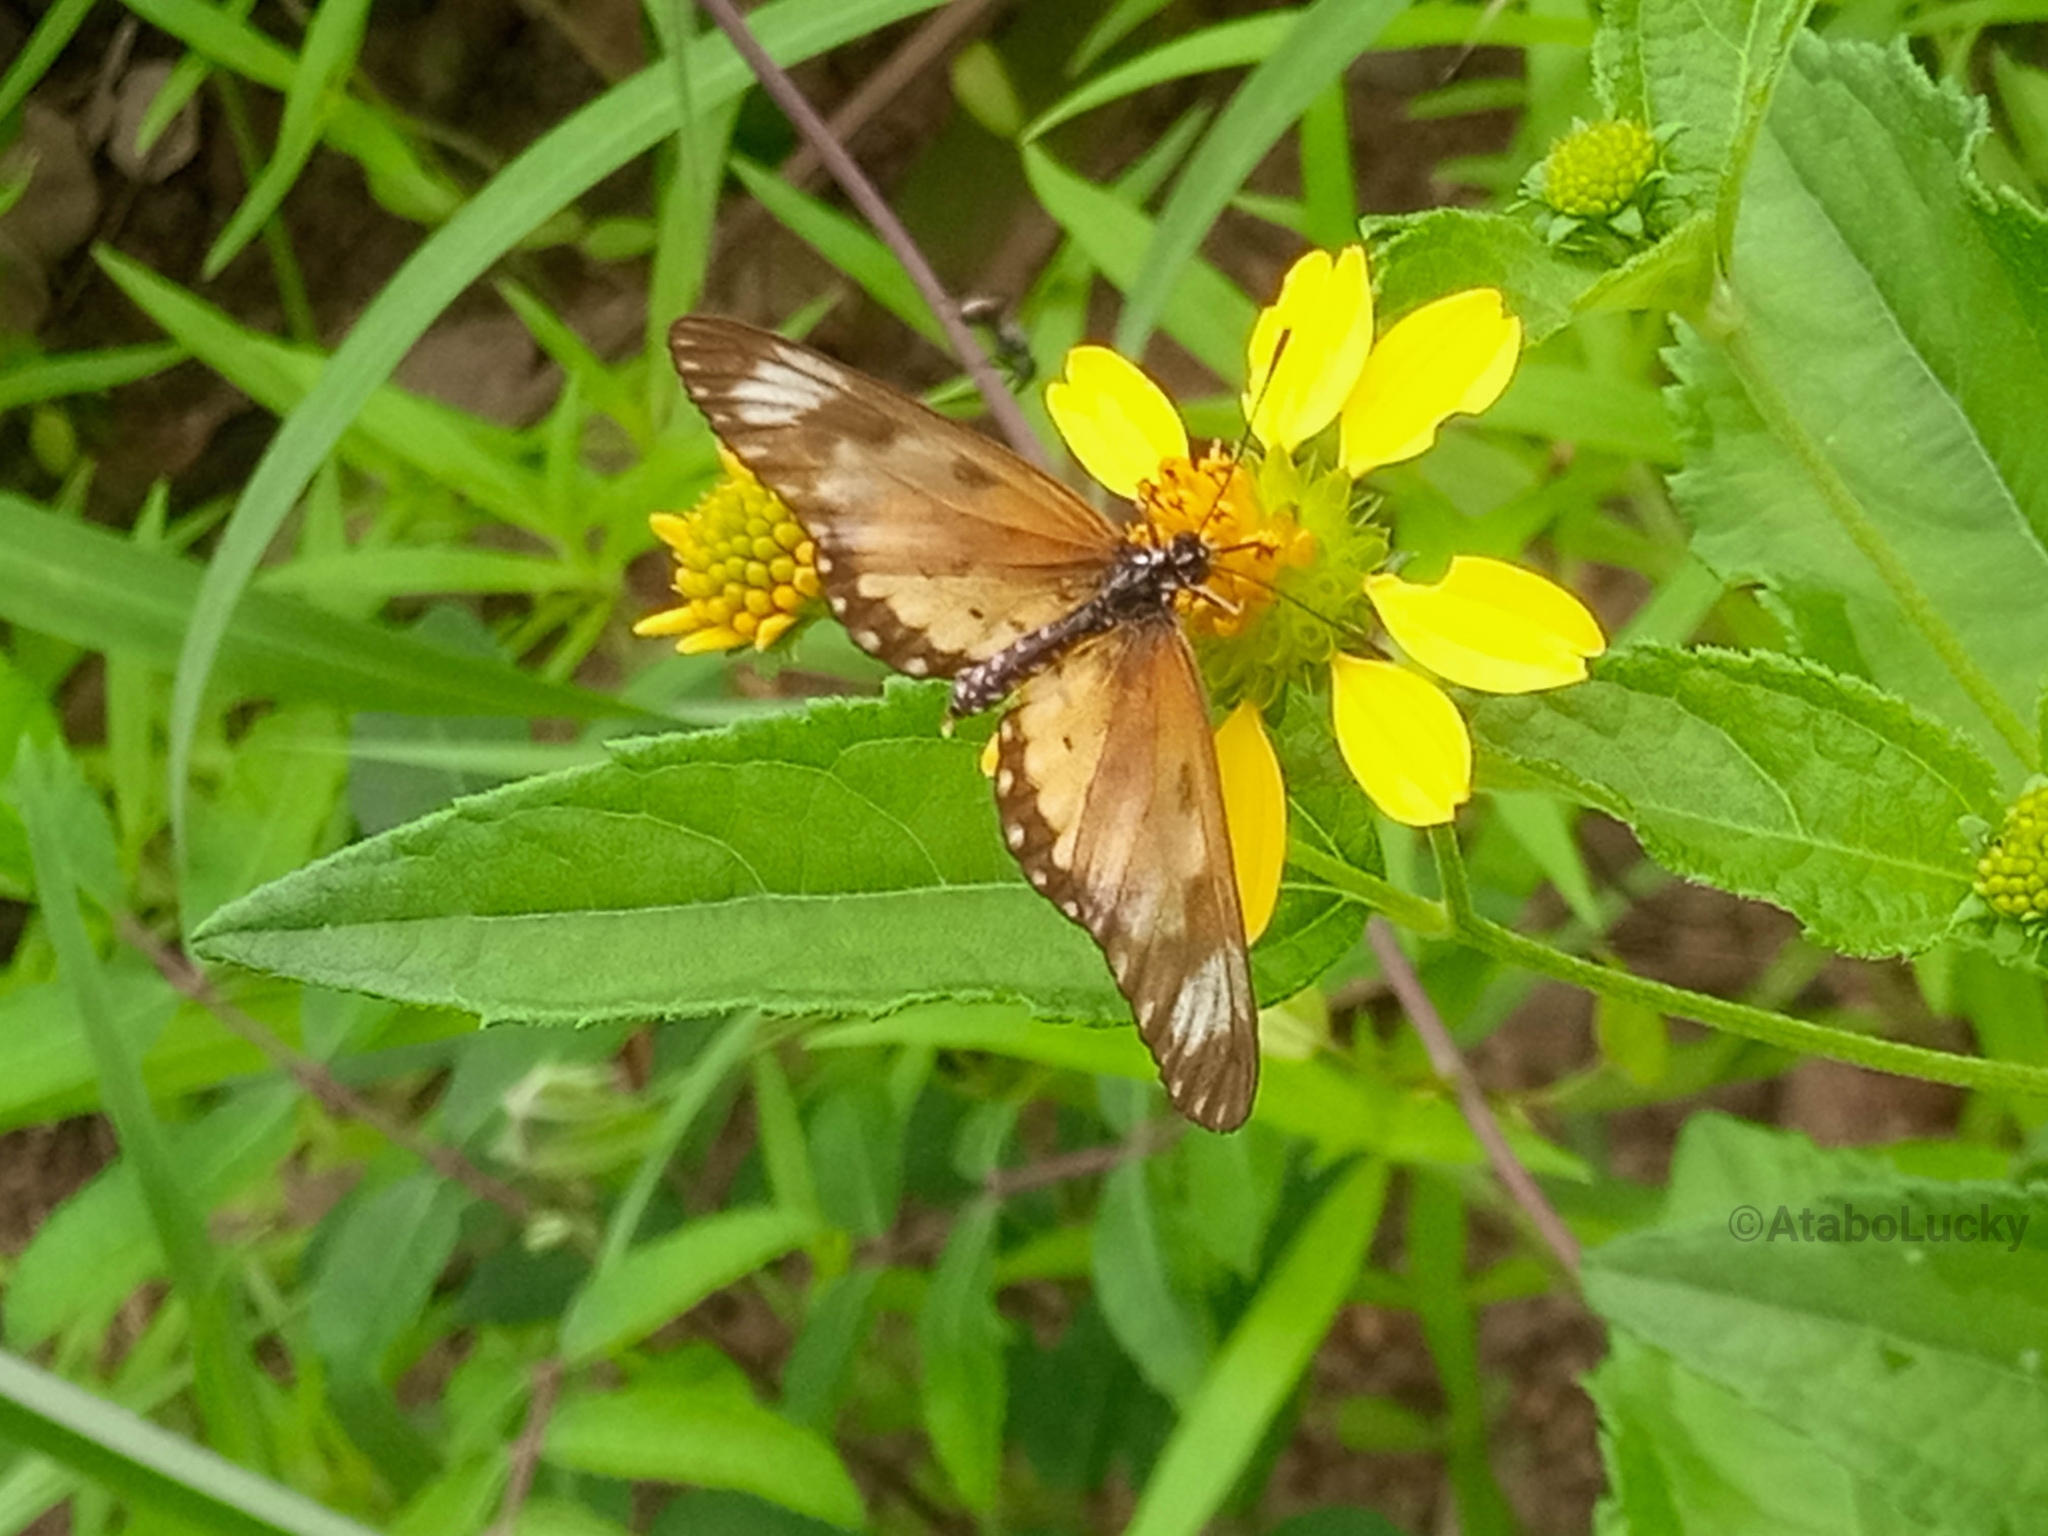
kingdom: Animalia
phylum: Arthropoda
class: Insecta
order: Lepidoptera
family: Nymphalidae
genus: Acraea
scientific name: Acraea Telchinia serena
